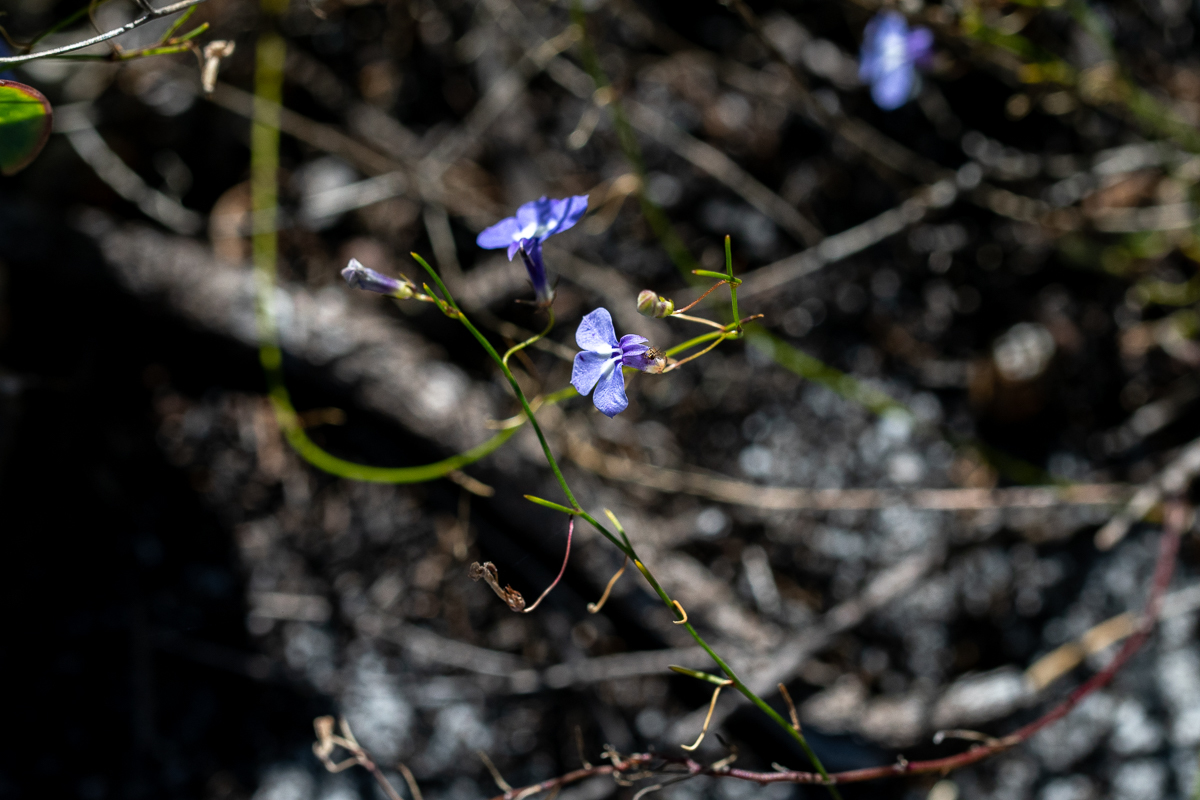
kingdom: Plantae
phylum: Tracheophyta
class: Magnoliopsida
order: Asterales
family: Campanulaceae
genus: Lobelia
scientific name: Lobelia setacea
